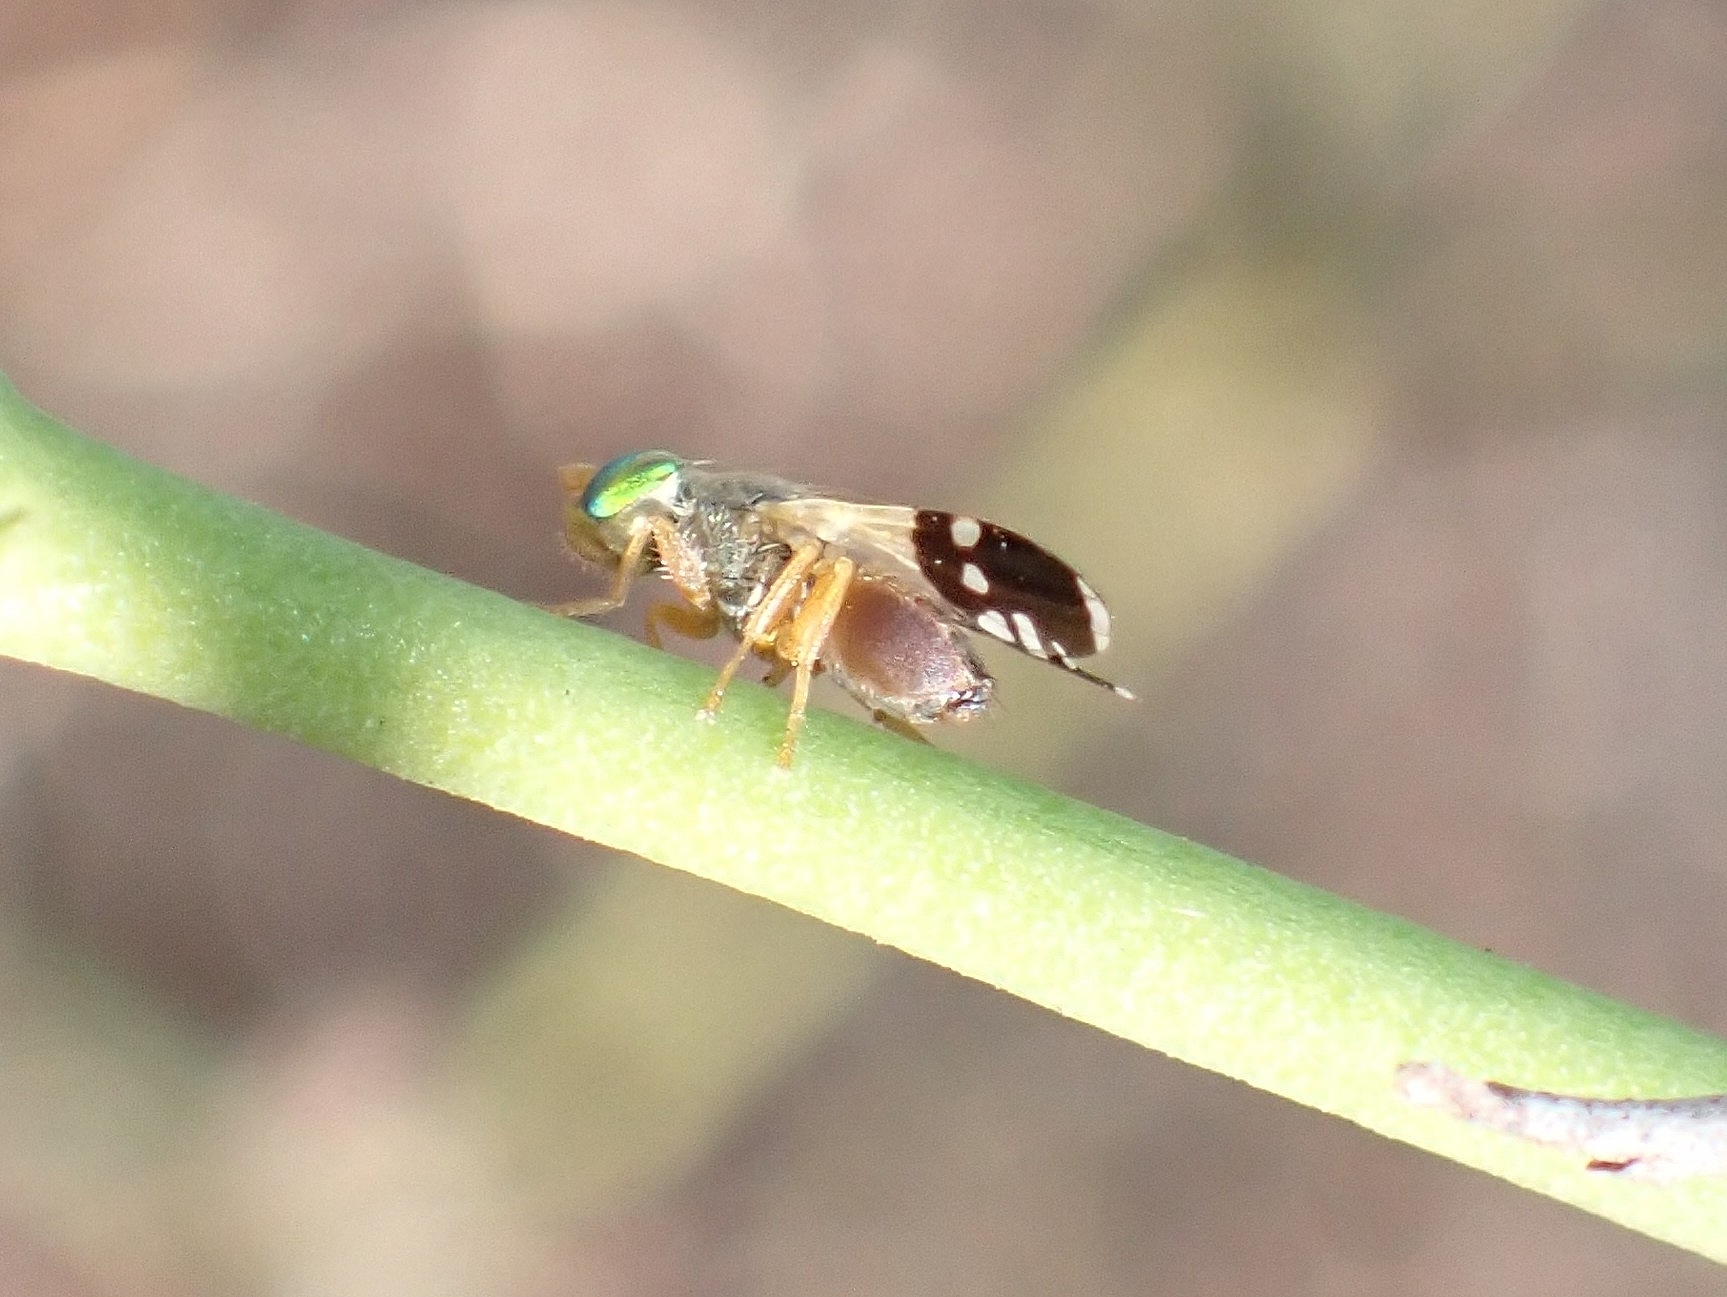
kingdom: Animalia
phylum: Arthropoda
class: Insecta
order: Diptera
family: Tephritidae
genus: Urelliosoma
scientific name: Urelliosoma guimari
